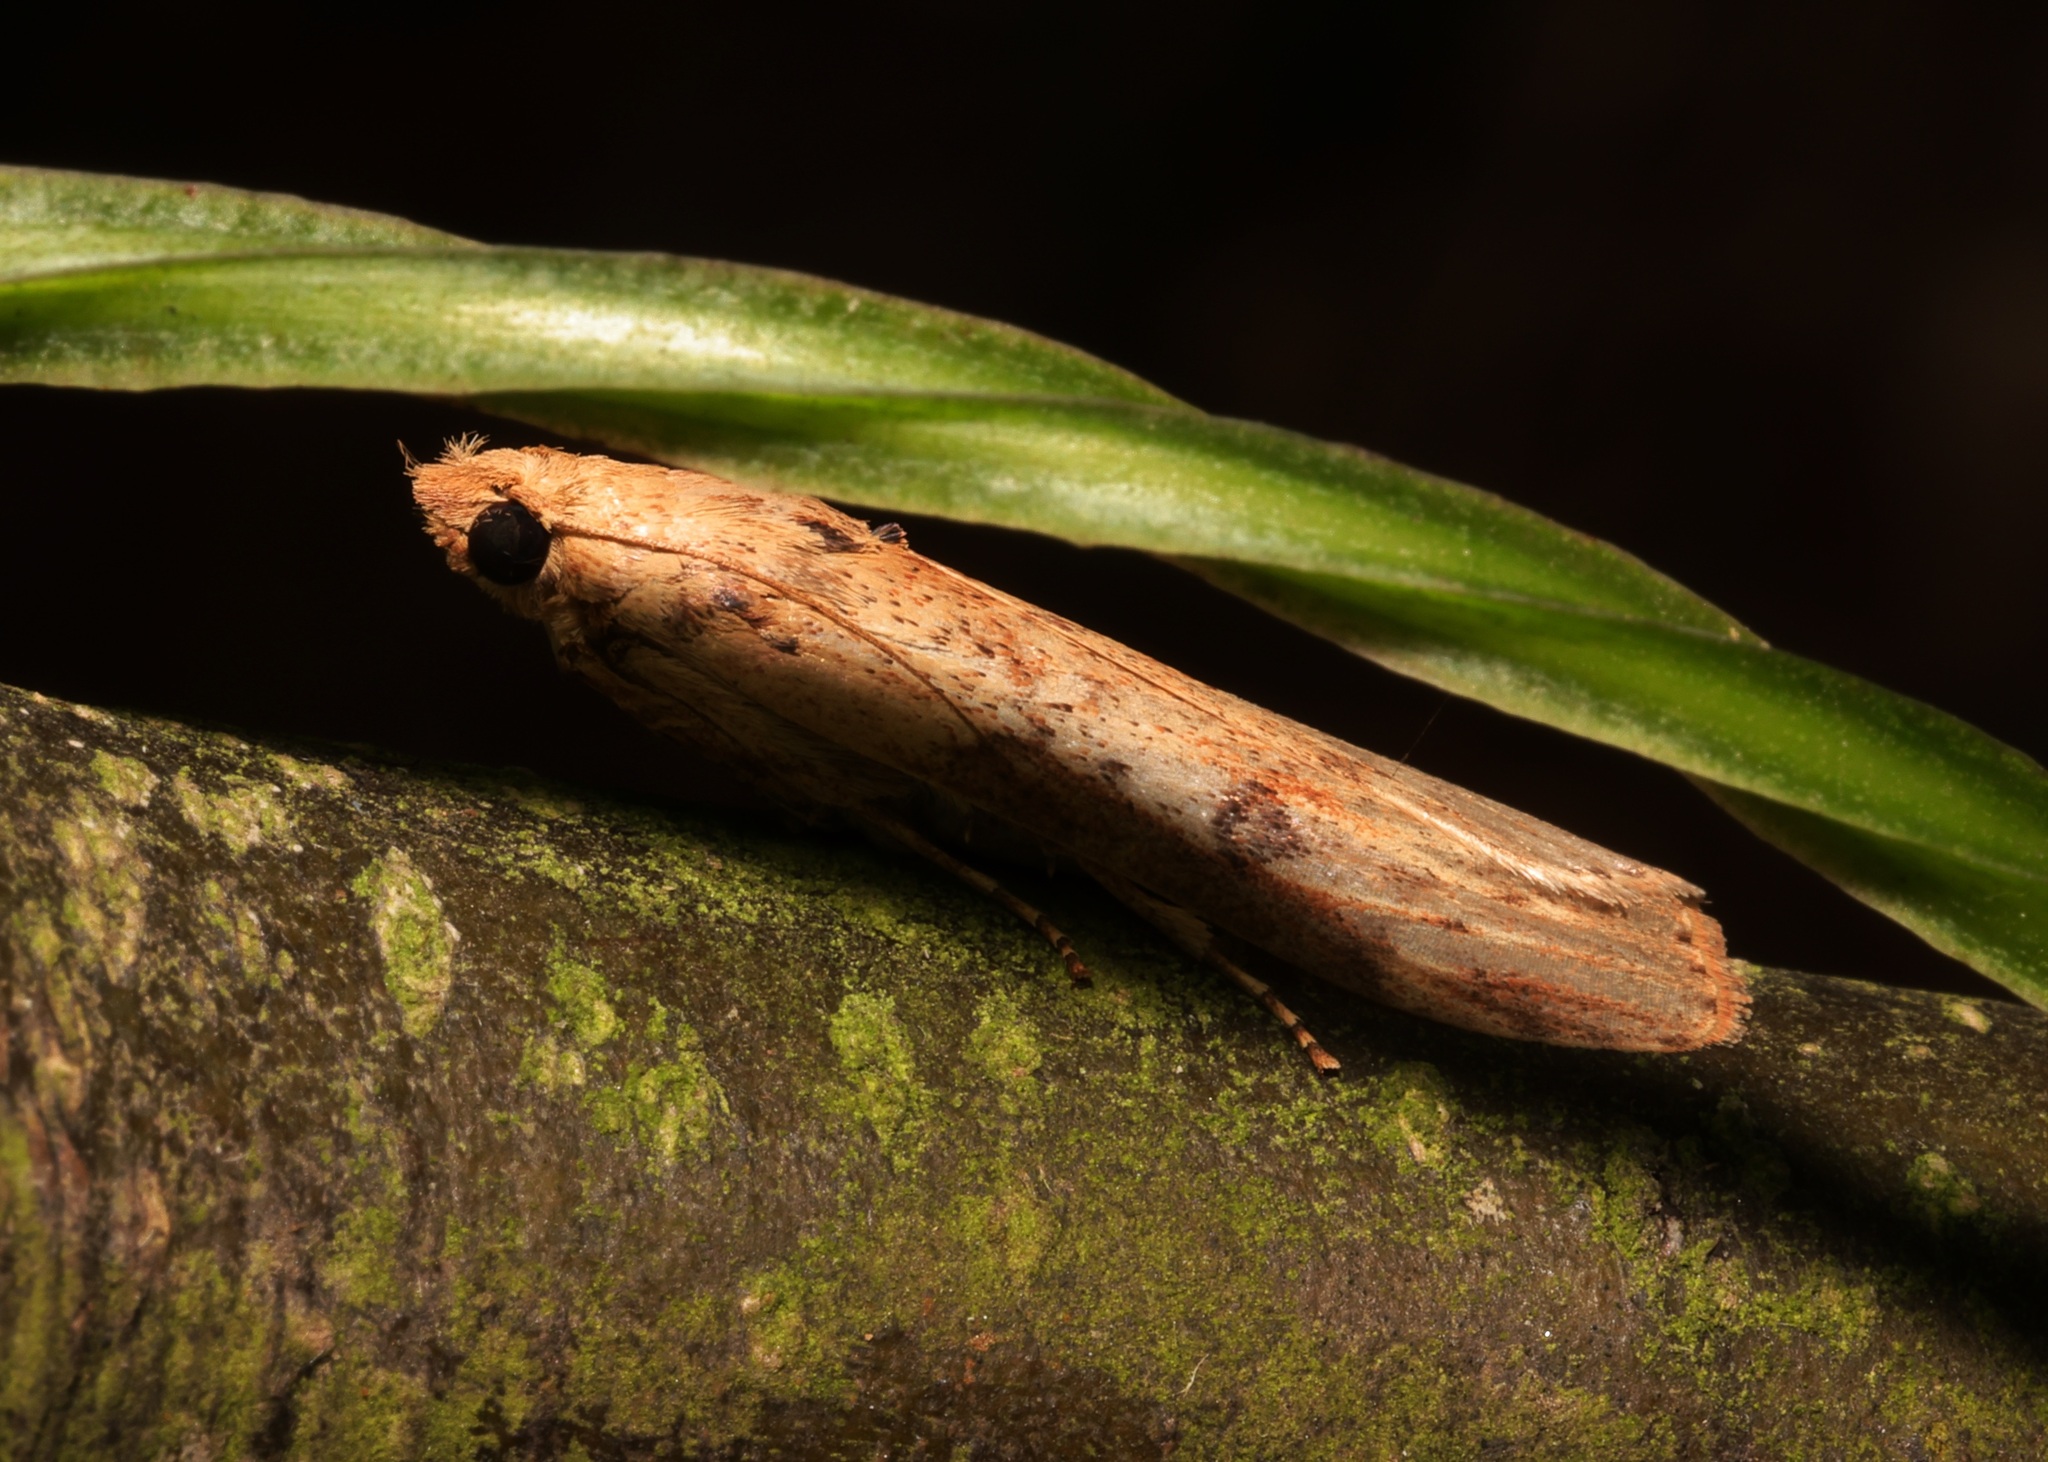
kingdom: Animalia
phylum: Arthropoda
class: Insecta
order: Lepidoptera
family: Pyralidae
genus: Lamoria
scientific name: Lamoria adaptella
